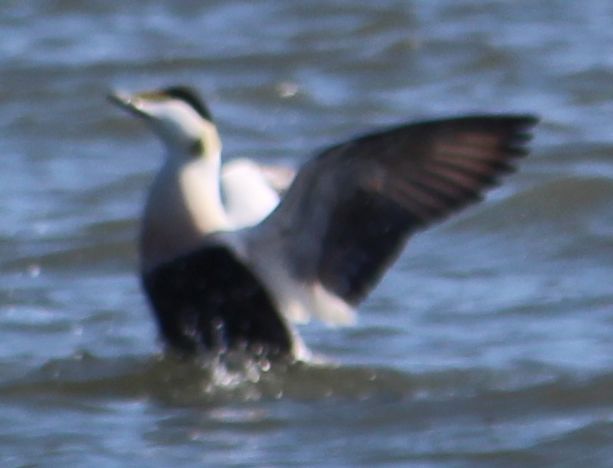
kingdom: Animalia
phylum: Chordata
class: Aves
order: Anseriformes
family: Anatidae
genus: Somateria
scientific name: Somateria mollissima
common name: Common eider
